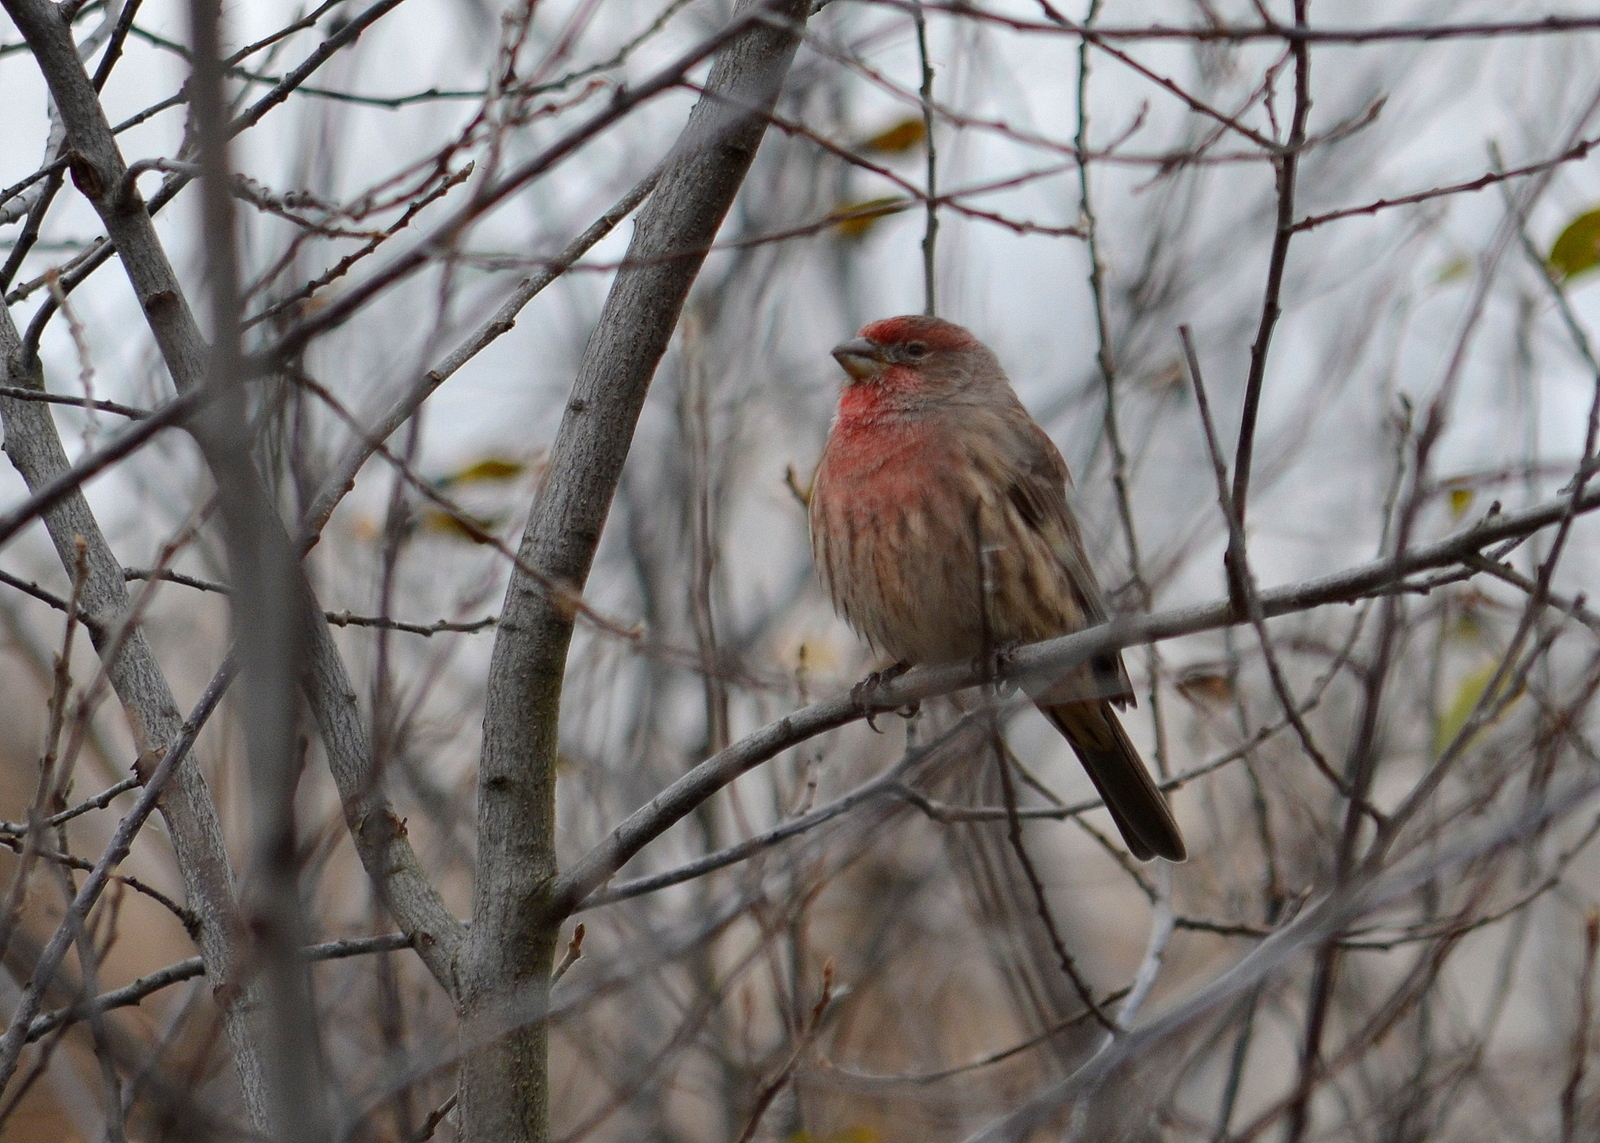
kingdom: Animalia
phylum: Chordata
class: Aves
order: Passeriformes
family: Fringillidae
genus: Haemorhous
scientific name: Haemorhous mexicanus
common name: House finch
